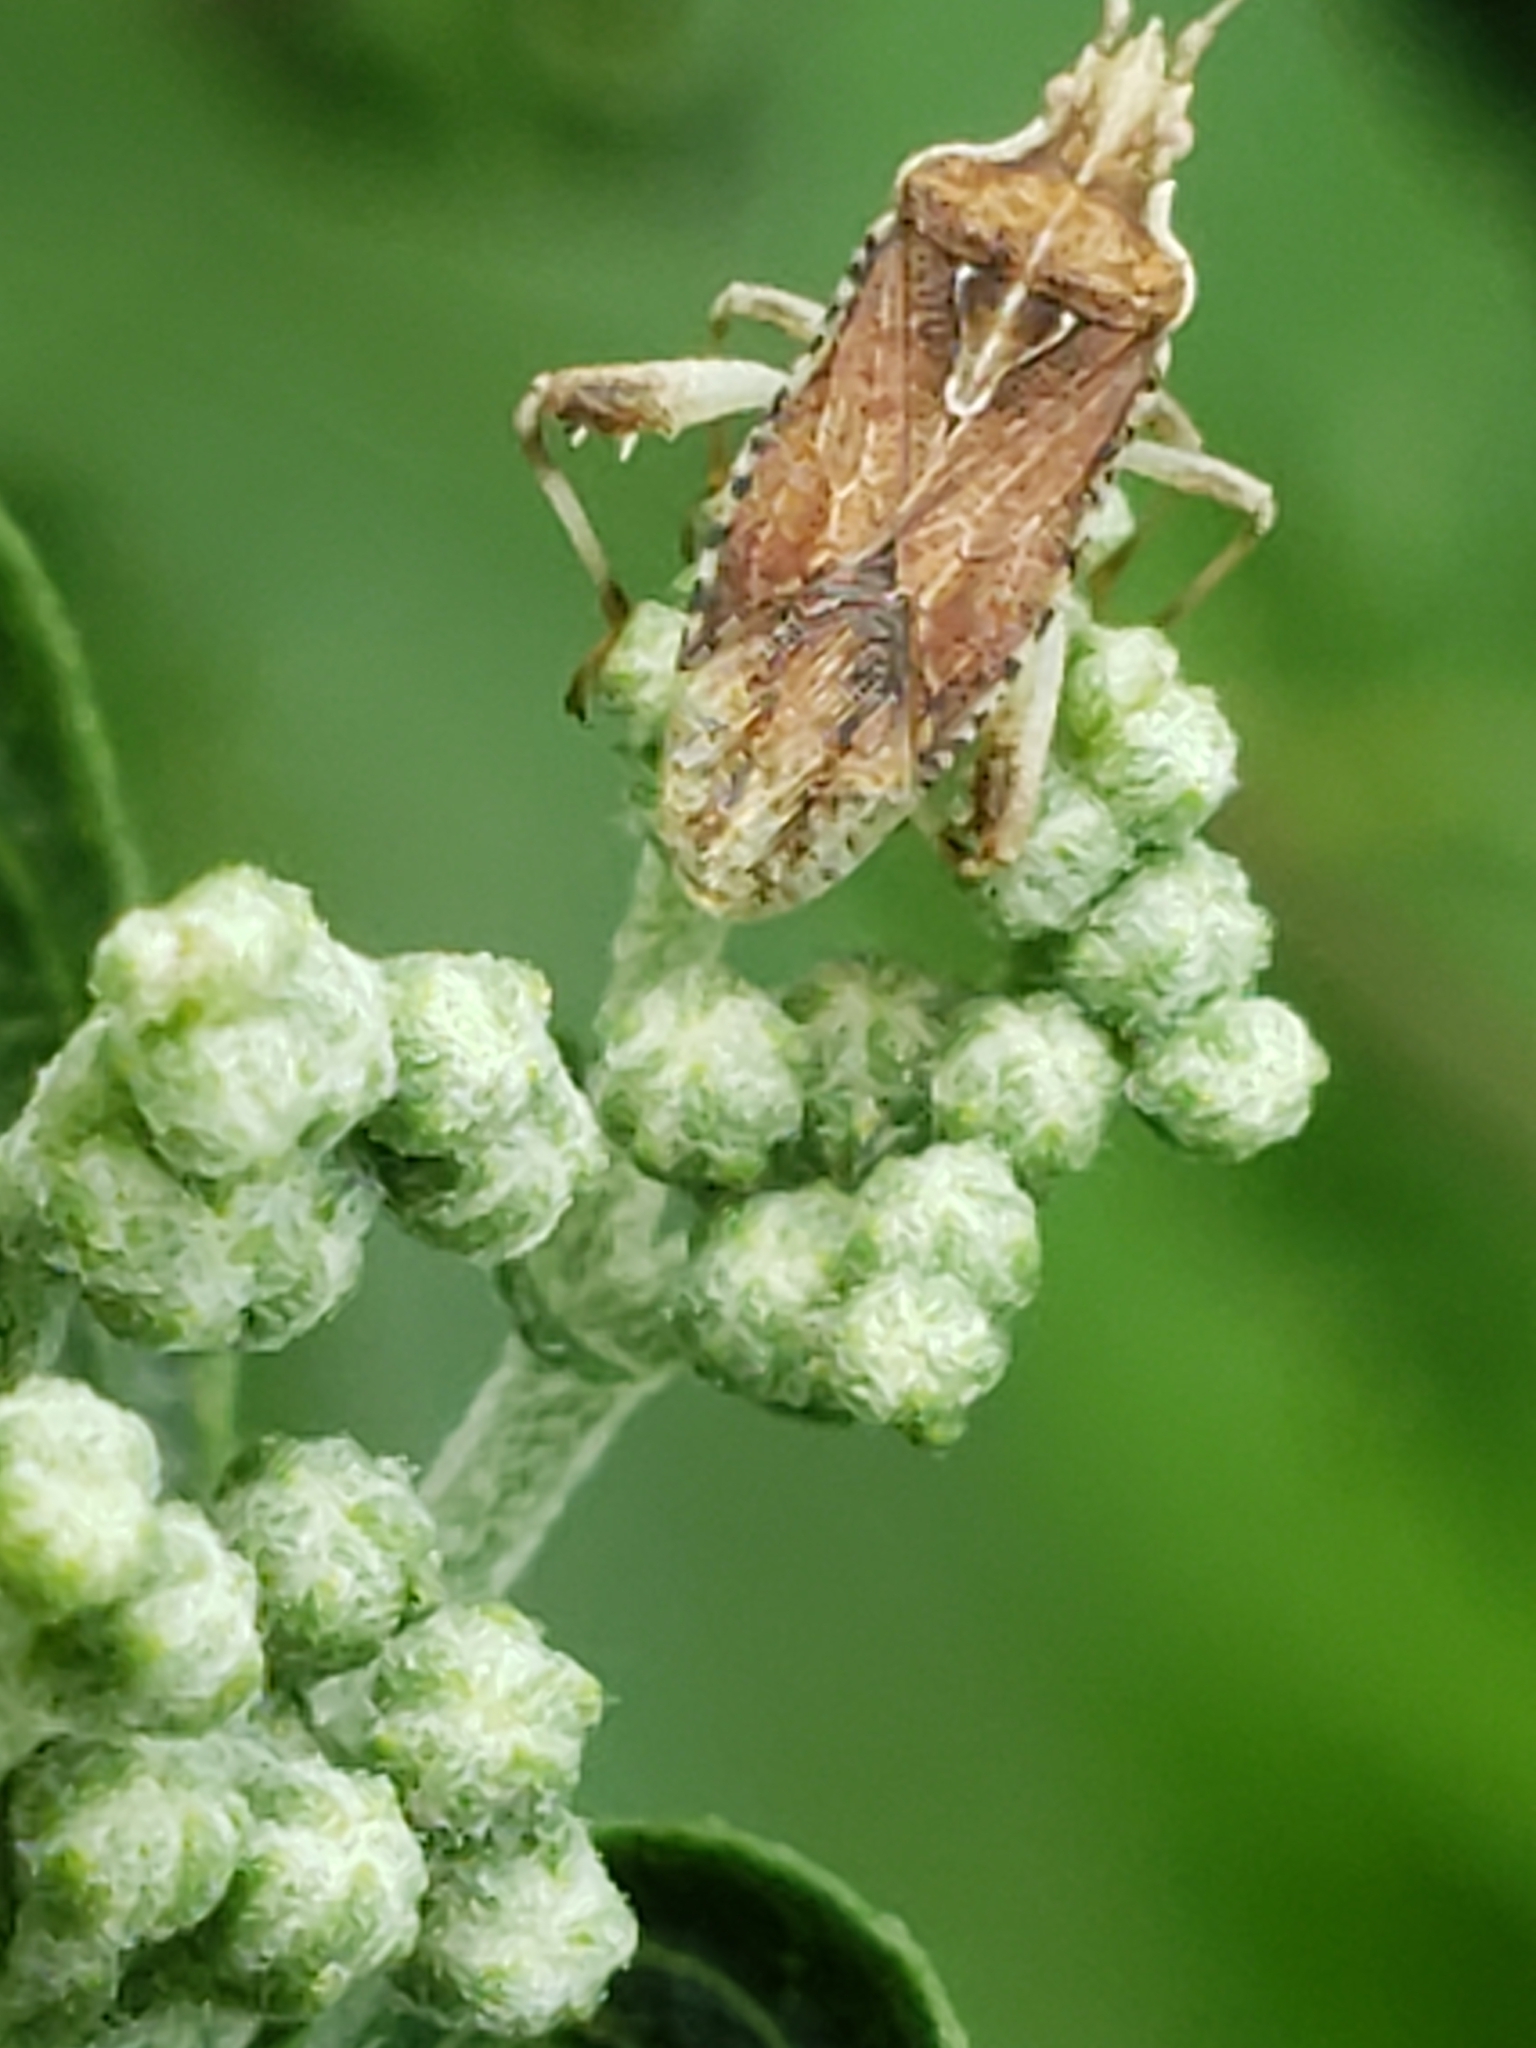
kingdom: Animalia
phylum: Arthropoda
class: Insecta
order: Hemiptera
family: Rhopalidae
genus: Harmostes
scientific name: Harmostes fraterculus
